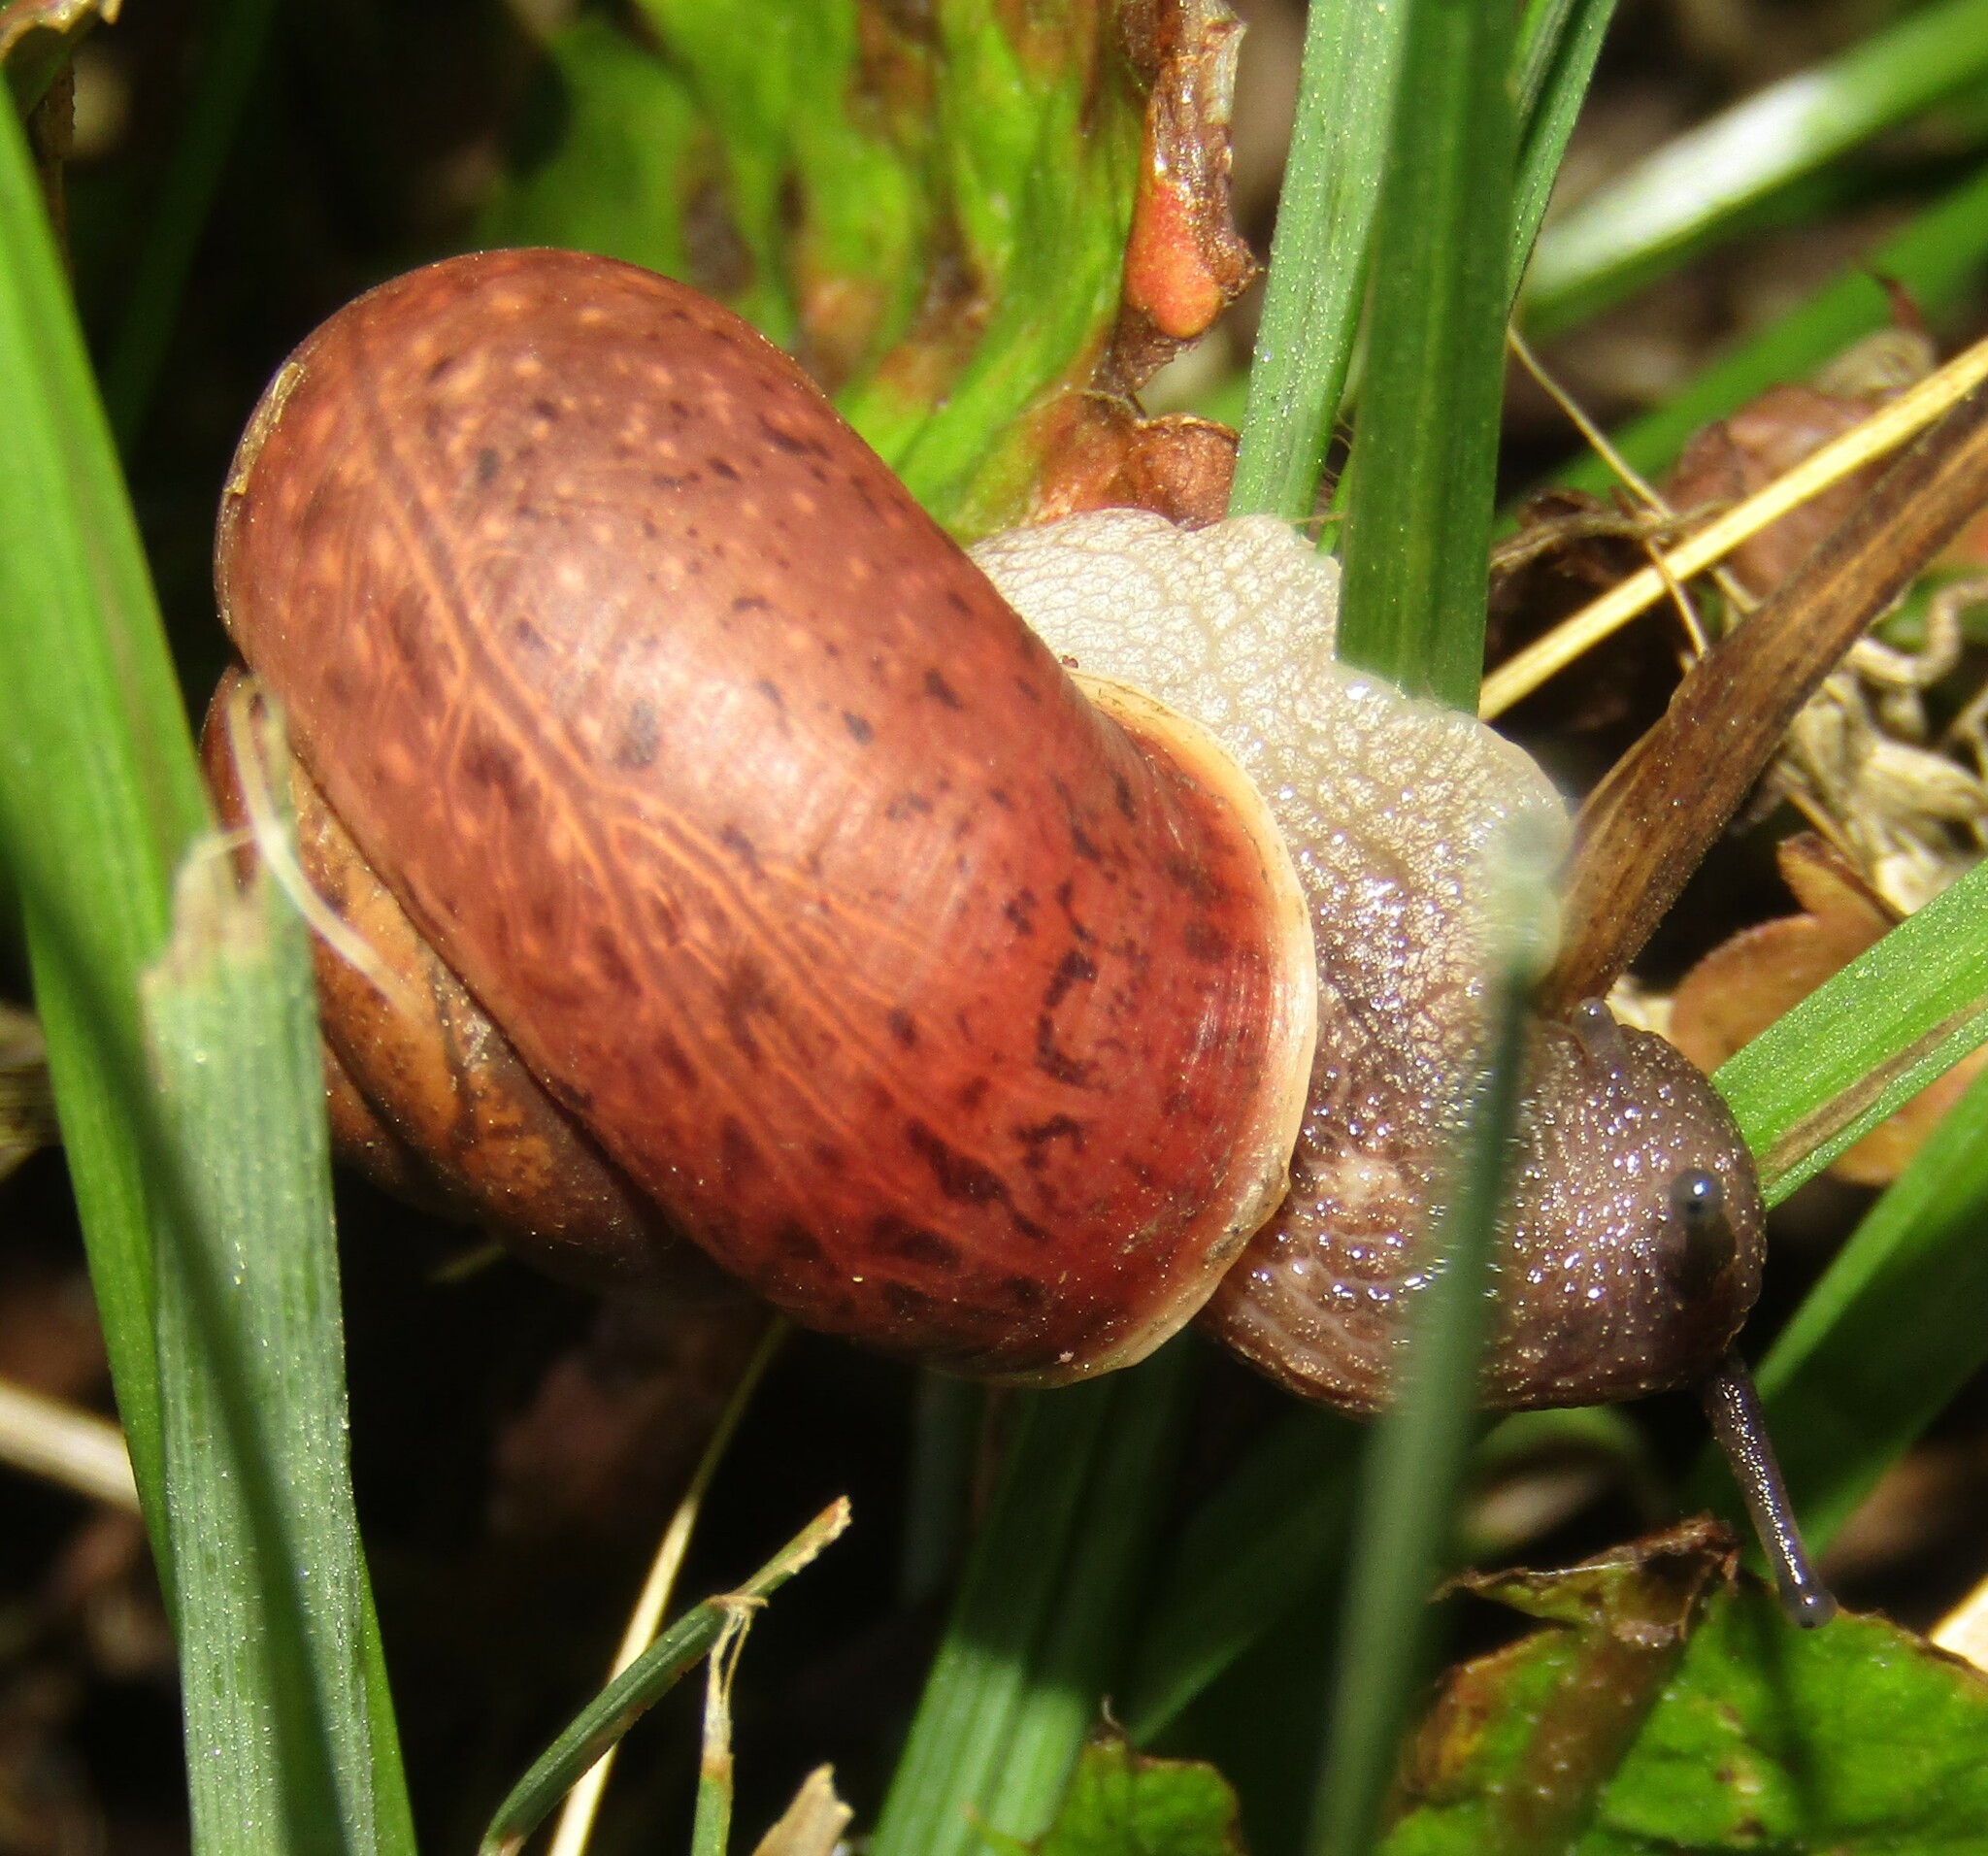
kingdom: Animalia
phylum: Mollusca
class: Gastropoda
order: Stylommatophora
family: Camaenidae
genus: Fruticicola
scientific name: Fruticicola fruticum
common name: Bush snail
